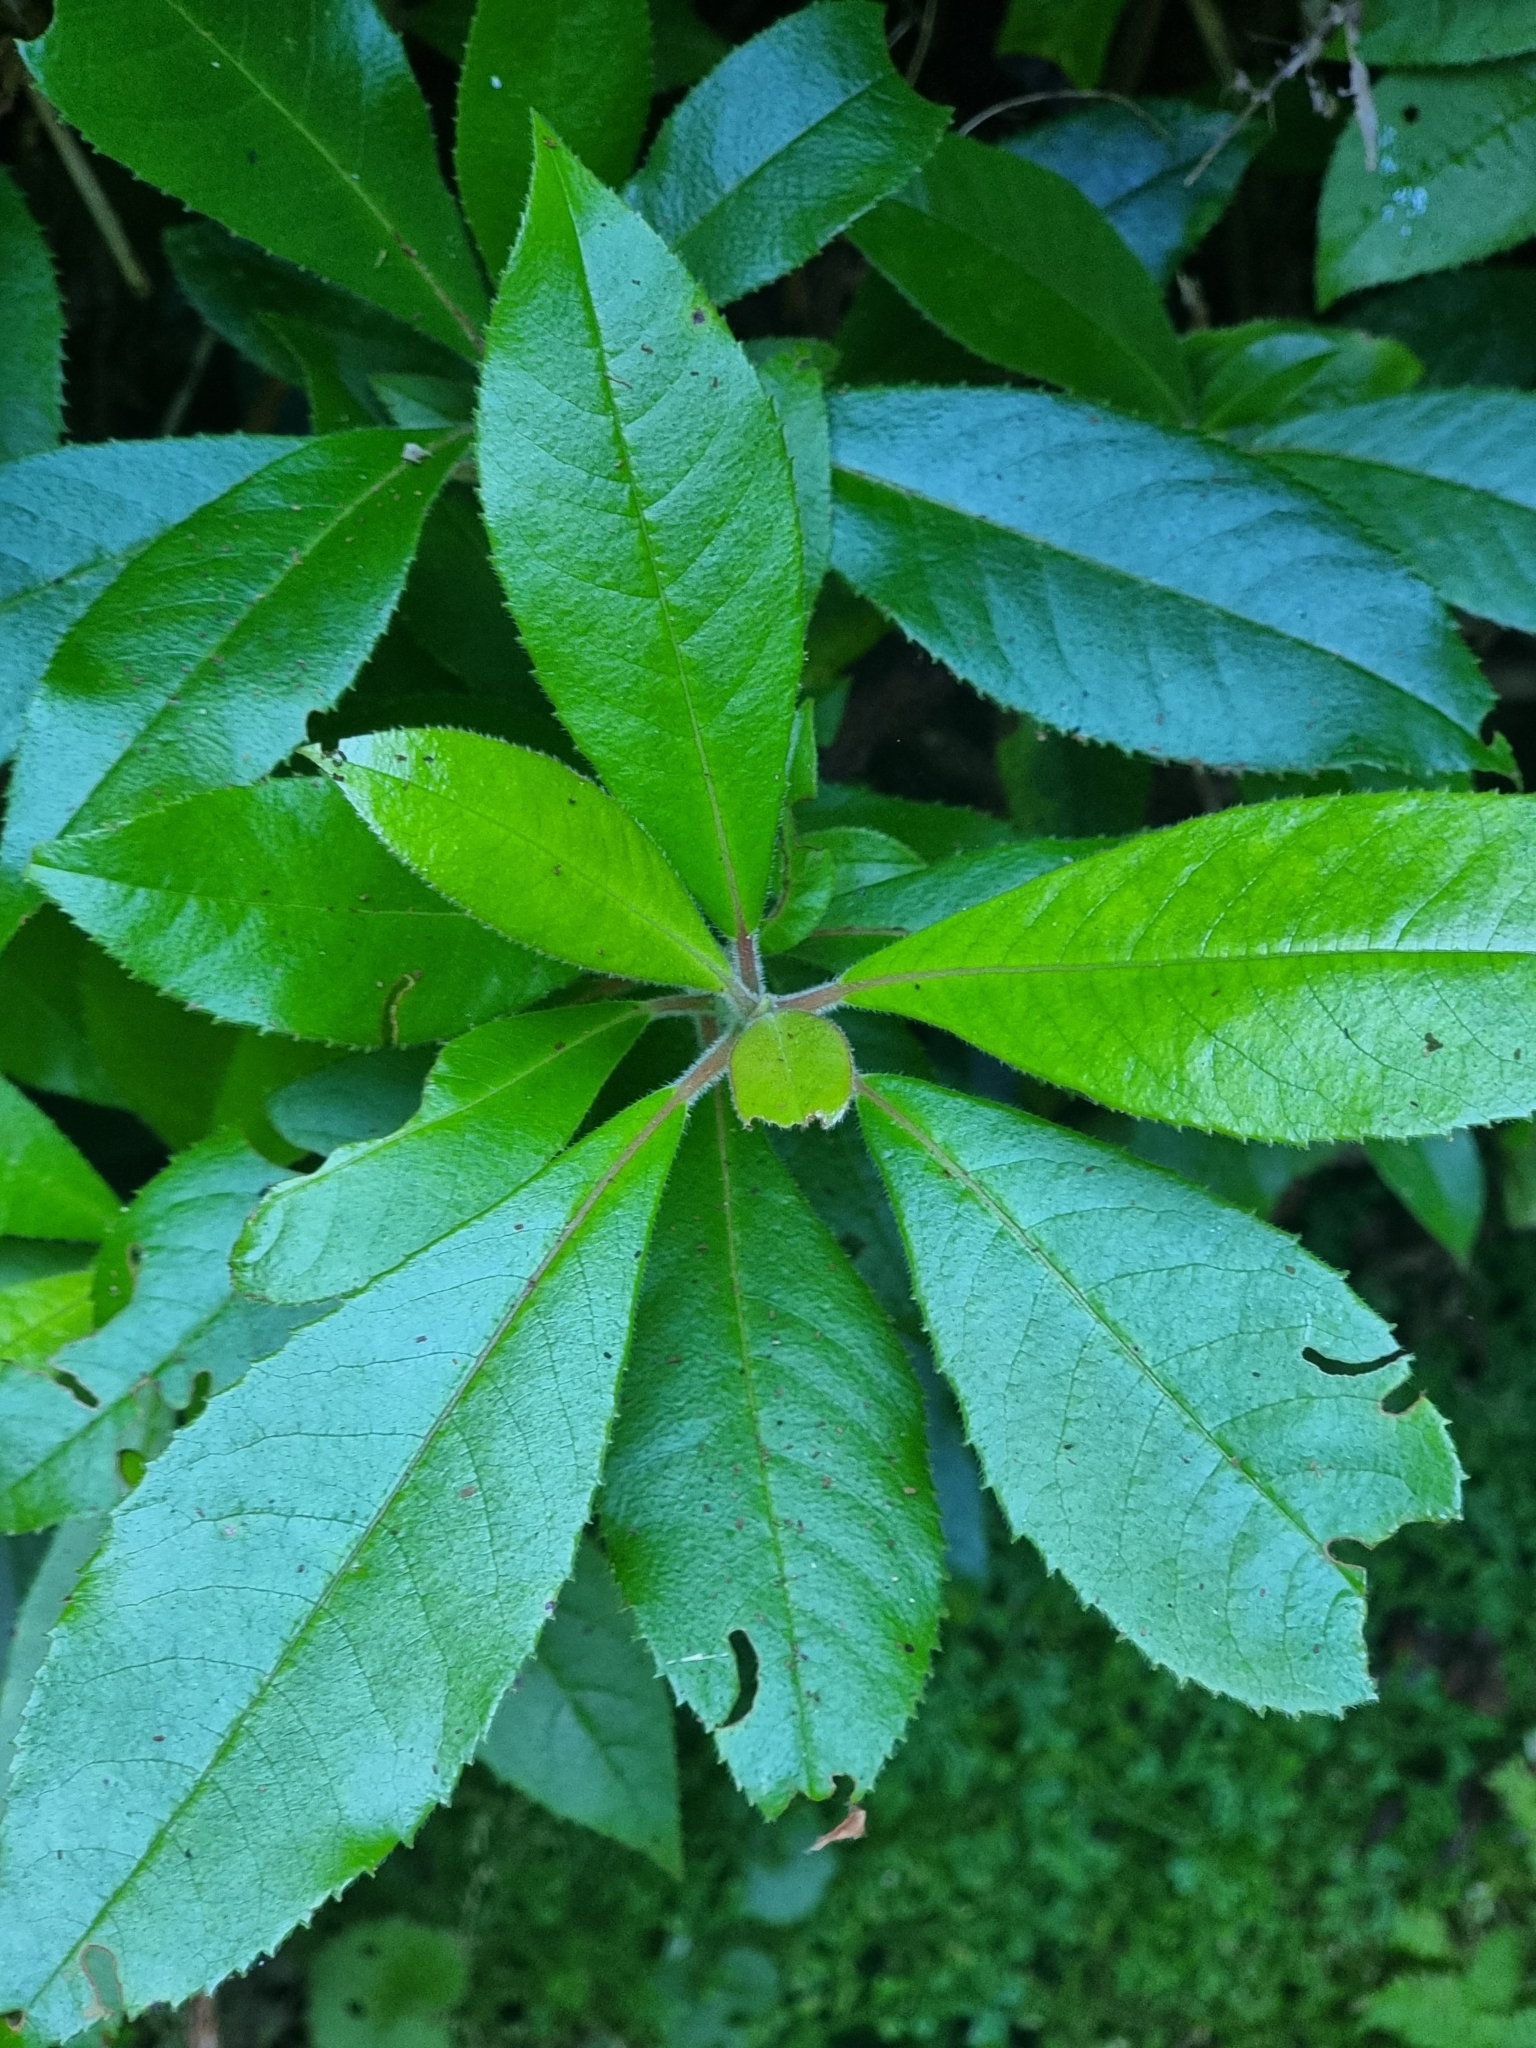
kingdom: Plantae
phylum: Tracheophyta
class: Magnoliopsida
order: Ericales
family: Clethraceae
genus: Clethra
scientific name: Clethra arborea
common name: Lily-of-the-valley-tree
